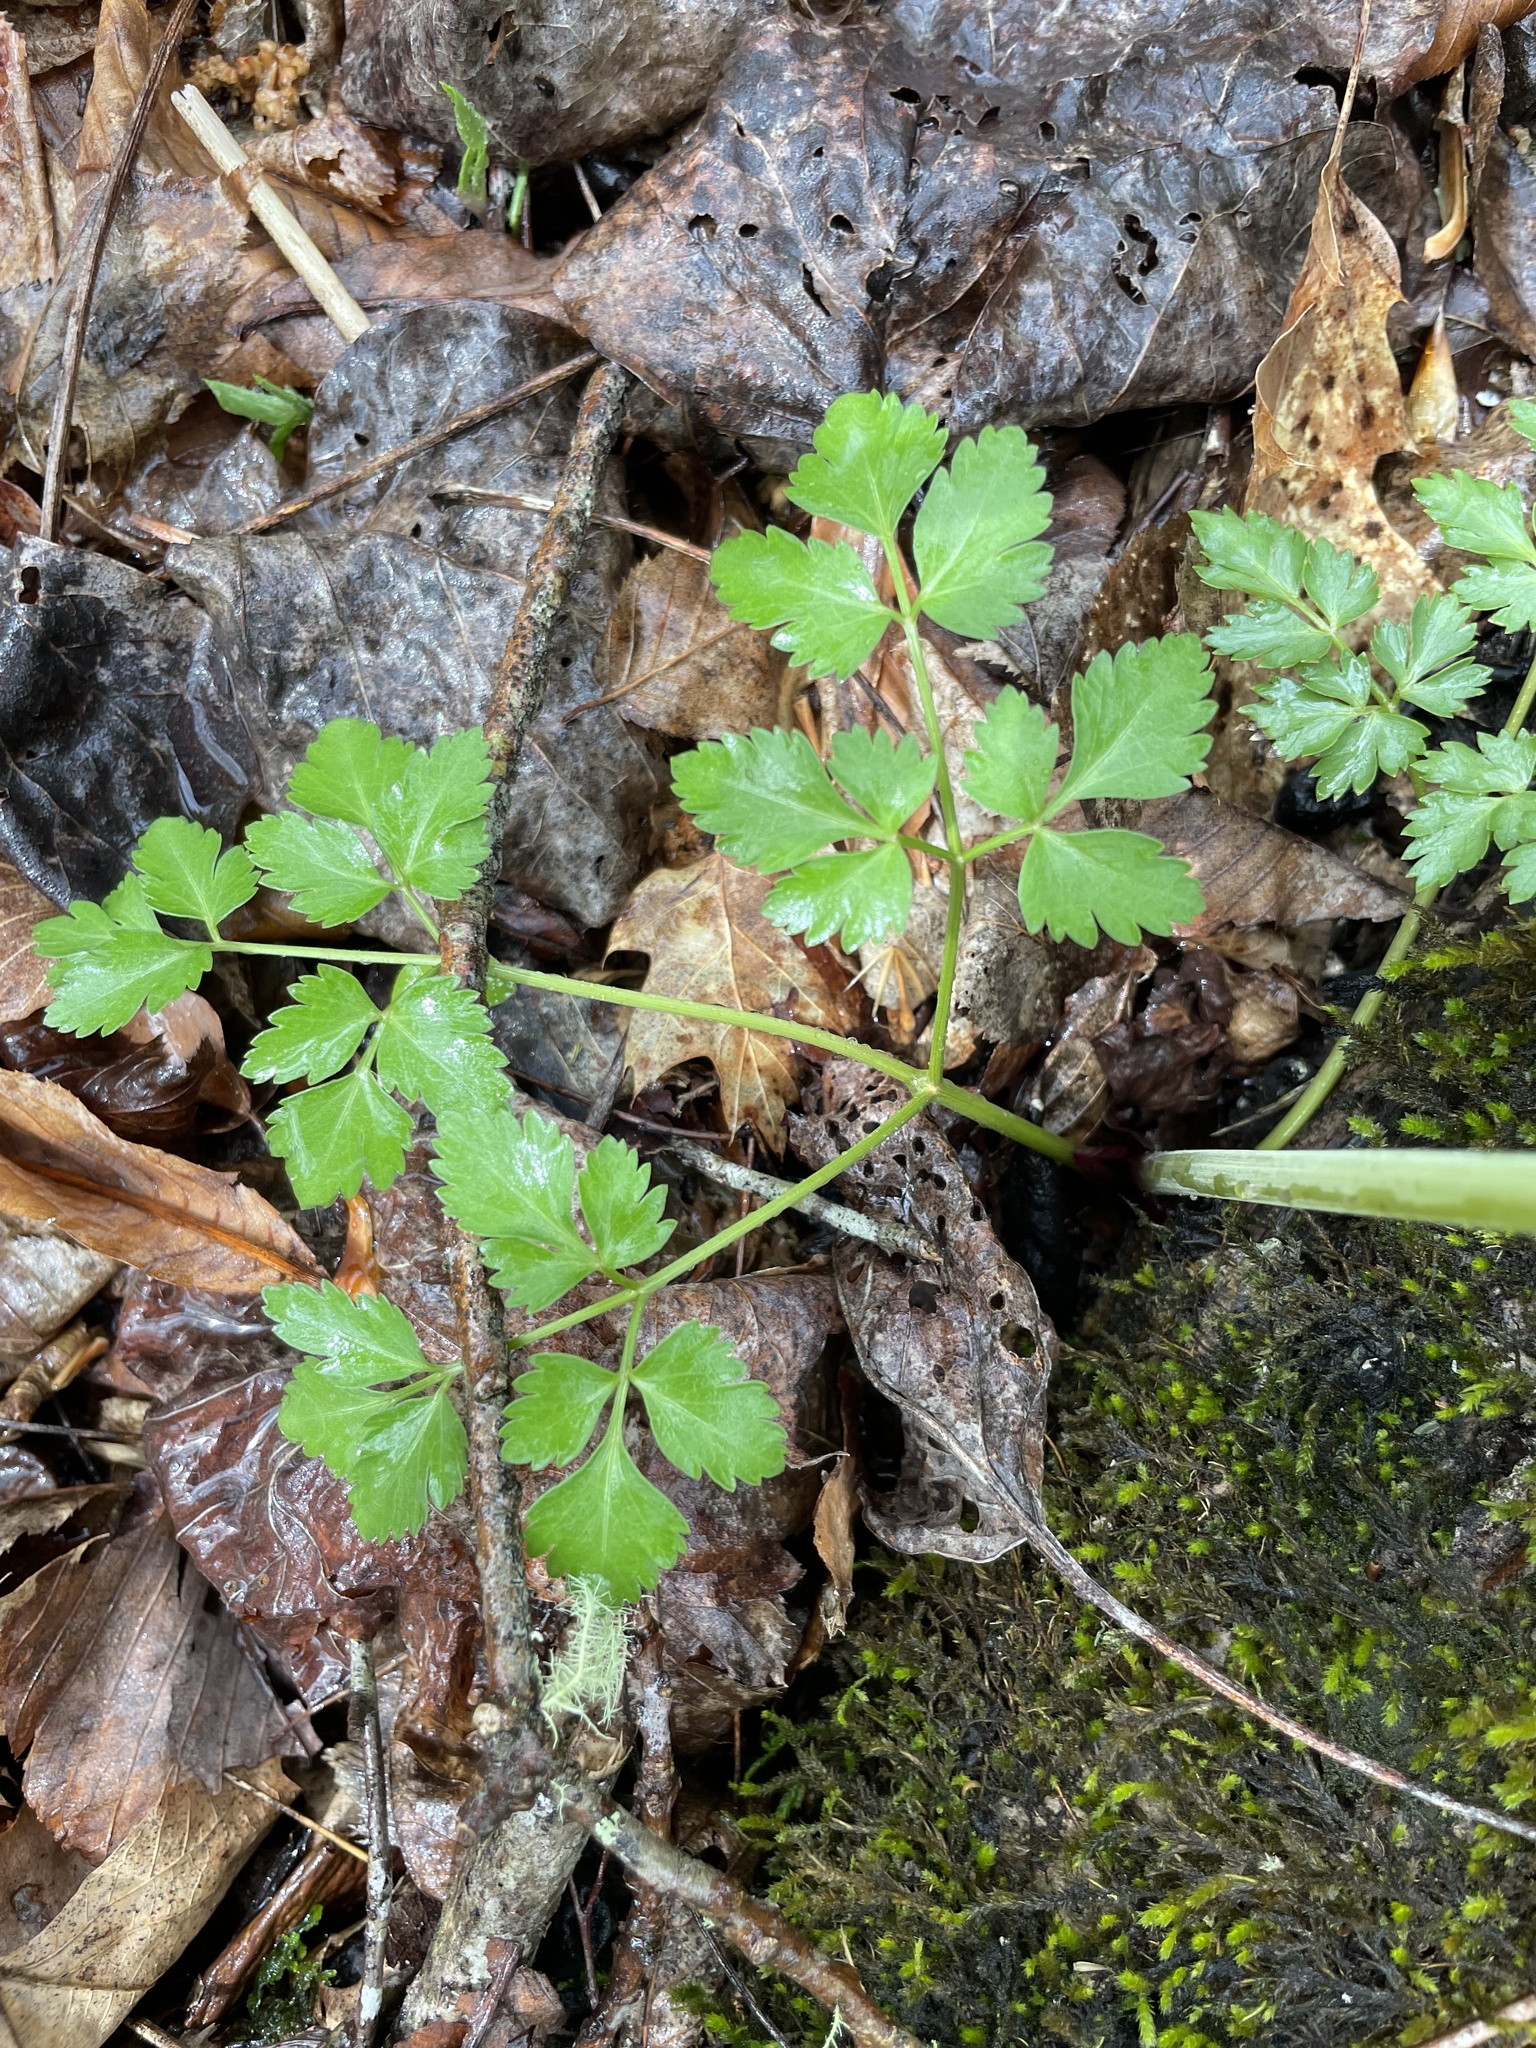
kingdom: Plantae
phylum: Tracheophyta
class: Magnoliopsida
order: Apiales
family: Apiaceae
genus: Thaspium
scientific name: Thaspium barbinode
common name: Bearded meadow-parsnip
